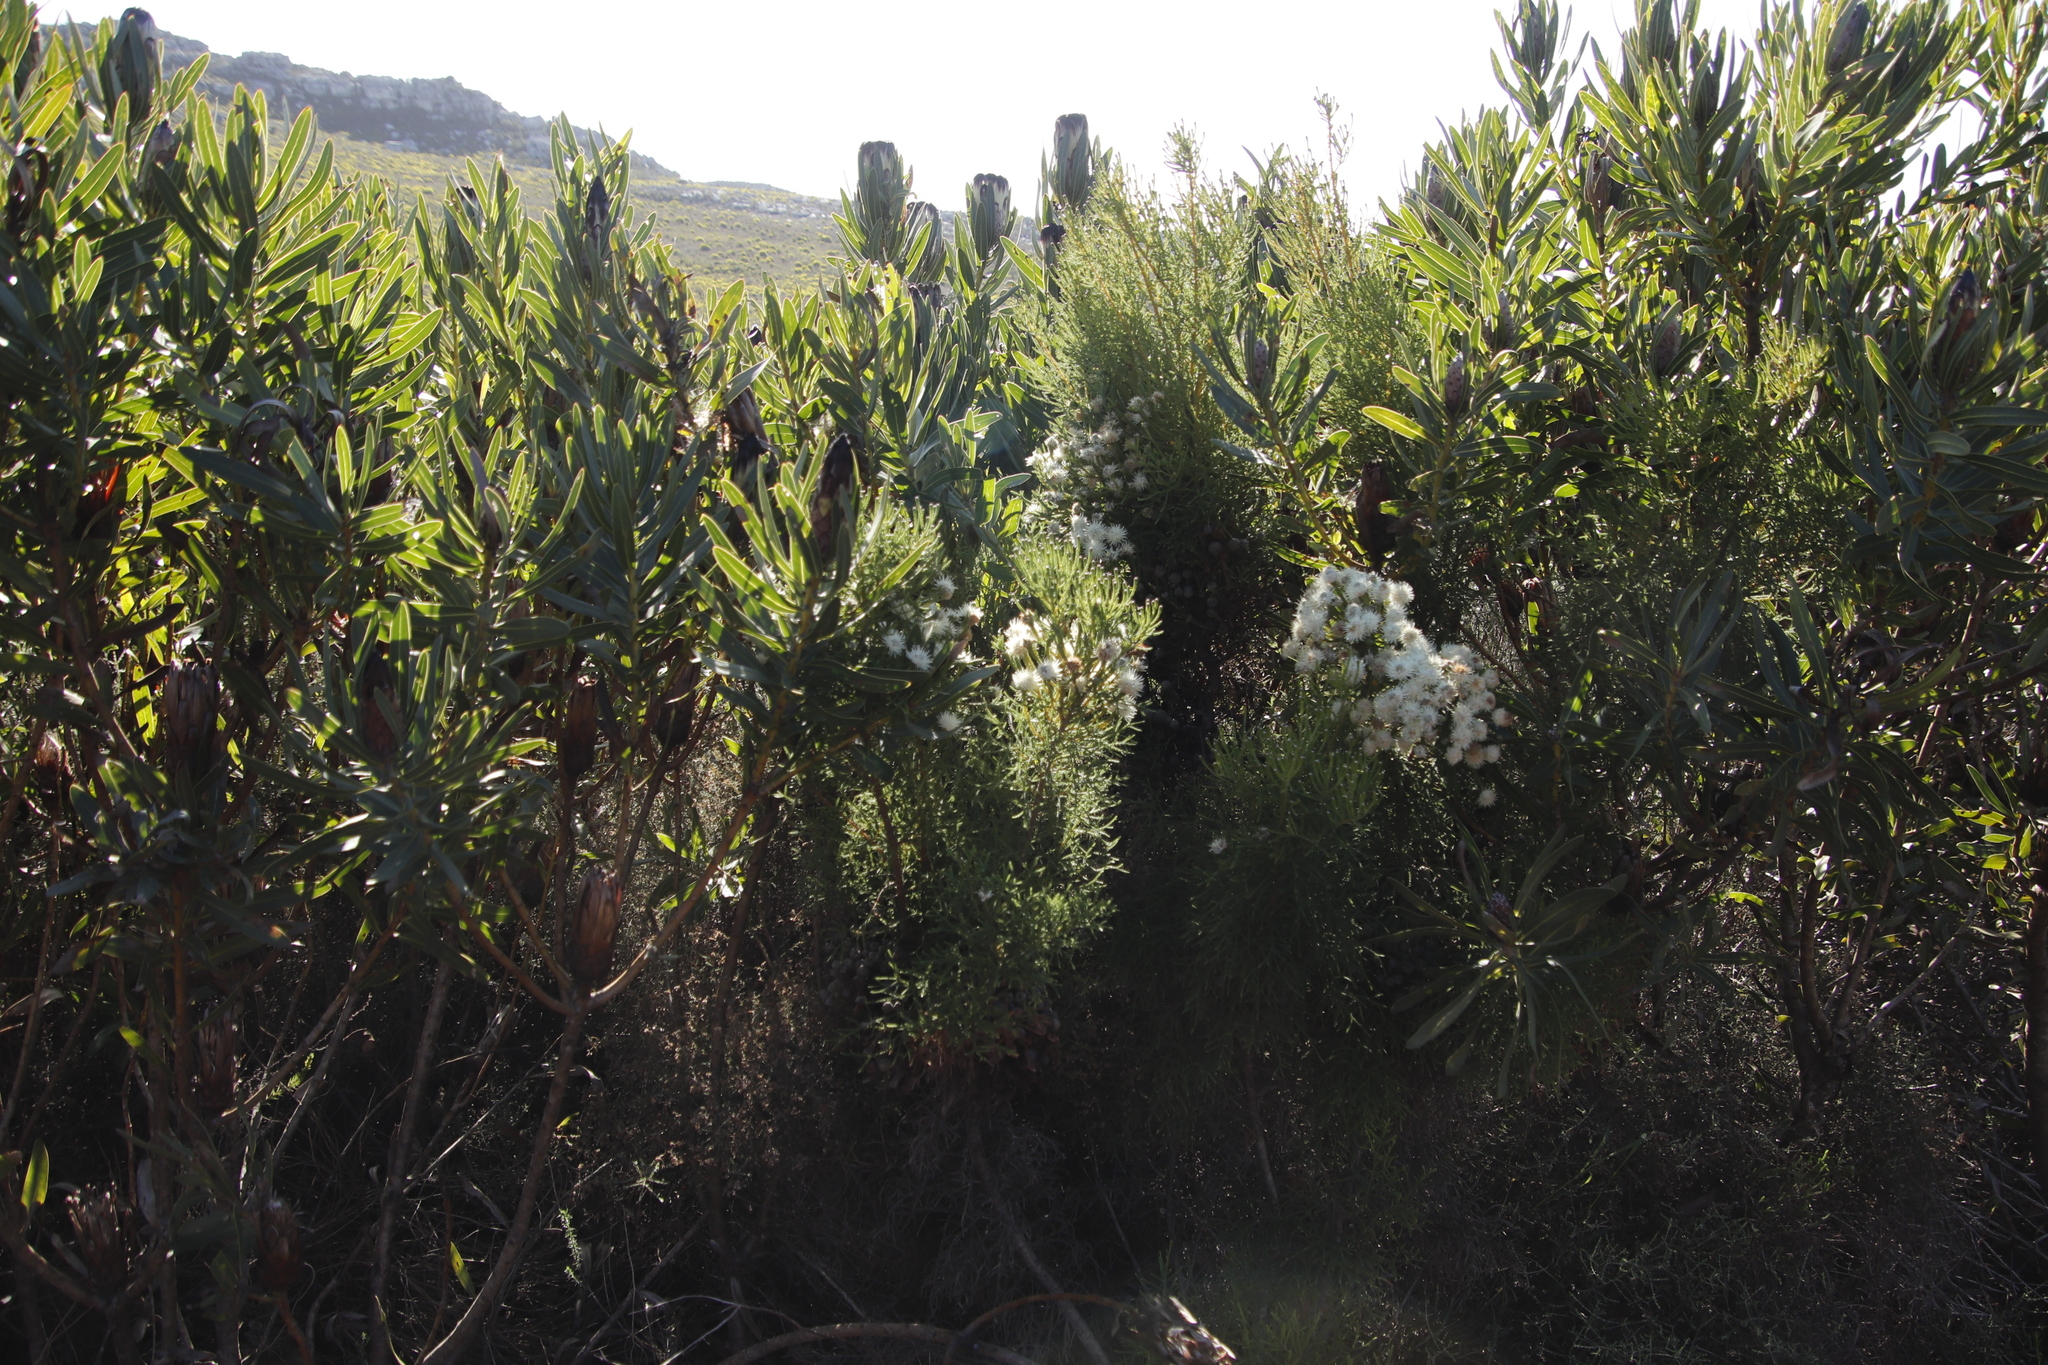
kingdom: Plantae
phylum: Tracheophyta
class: Magnoliopsida
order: Bruniales
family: Bruniaceae
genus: Brunia
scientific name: Brunia noduliflora
